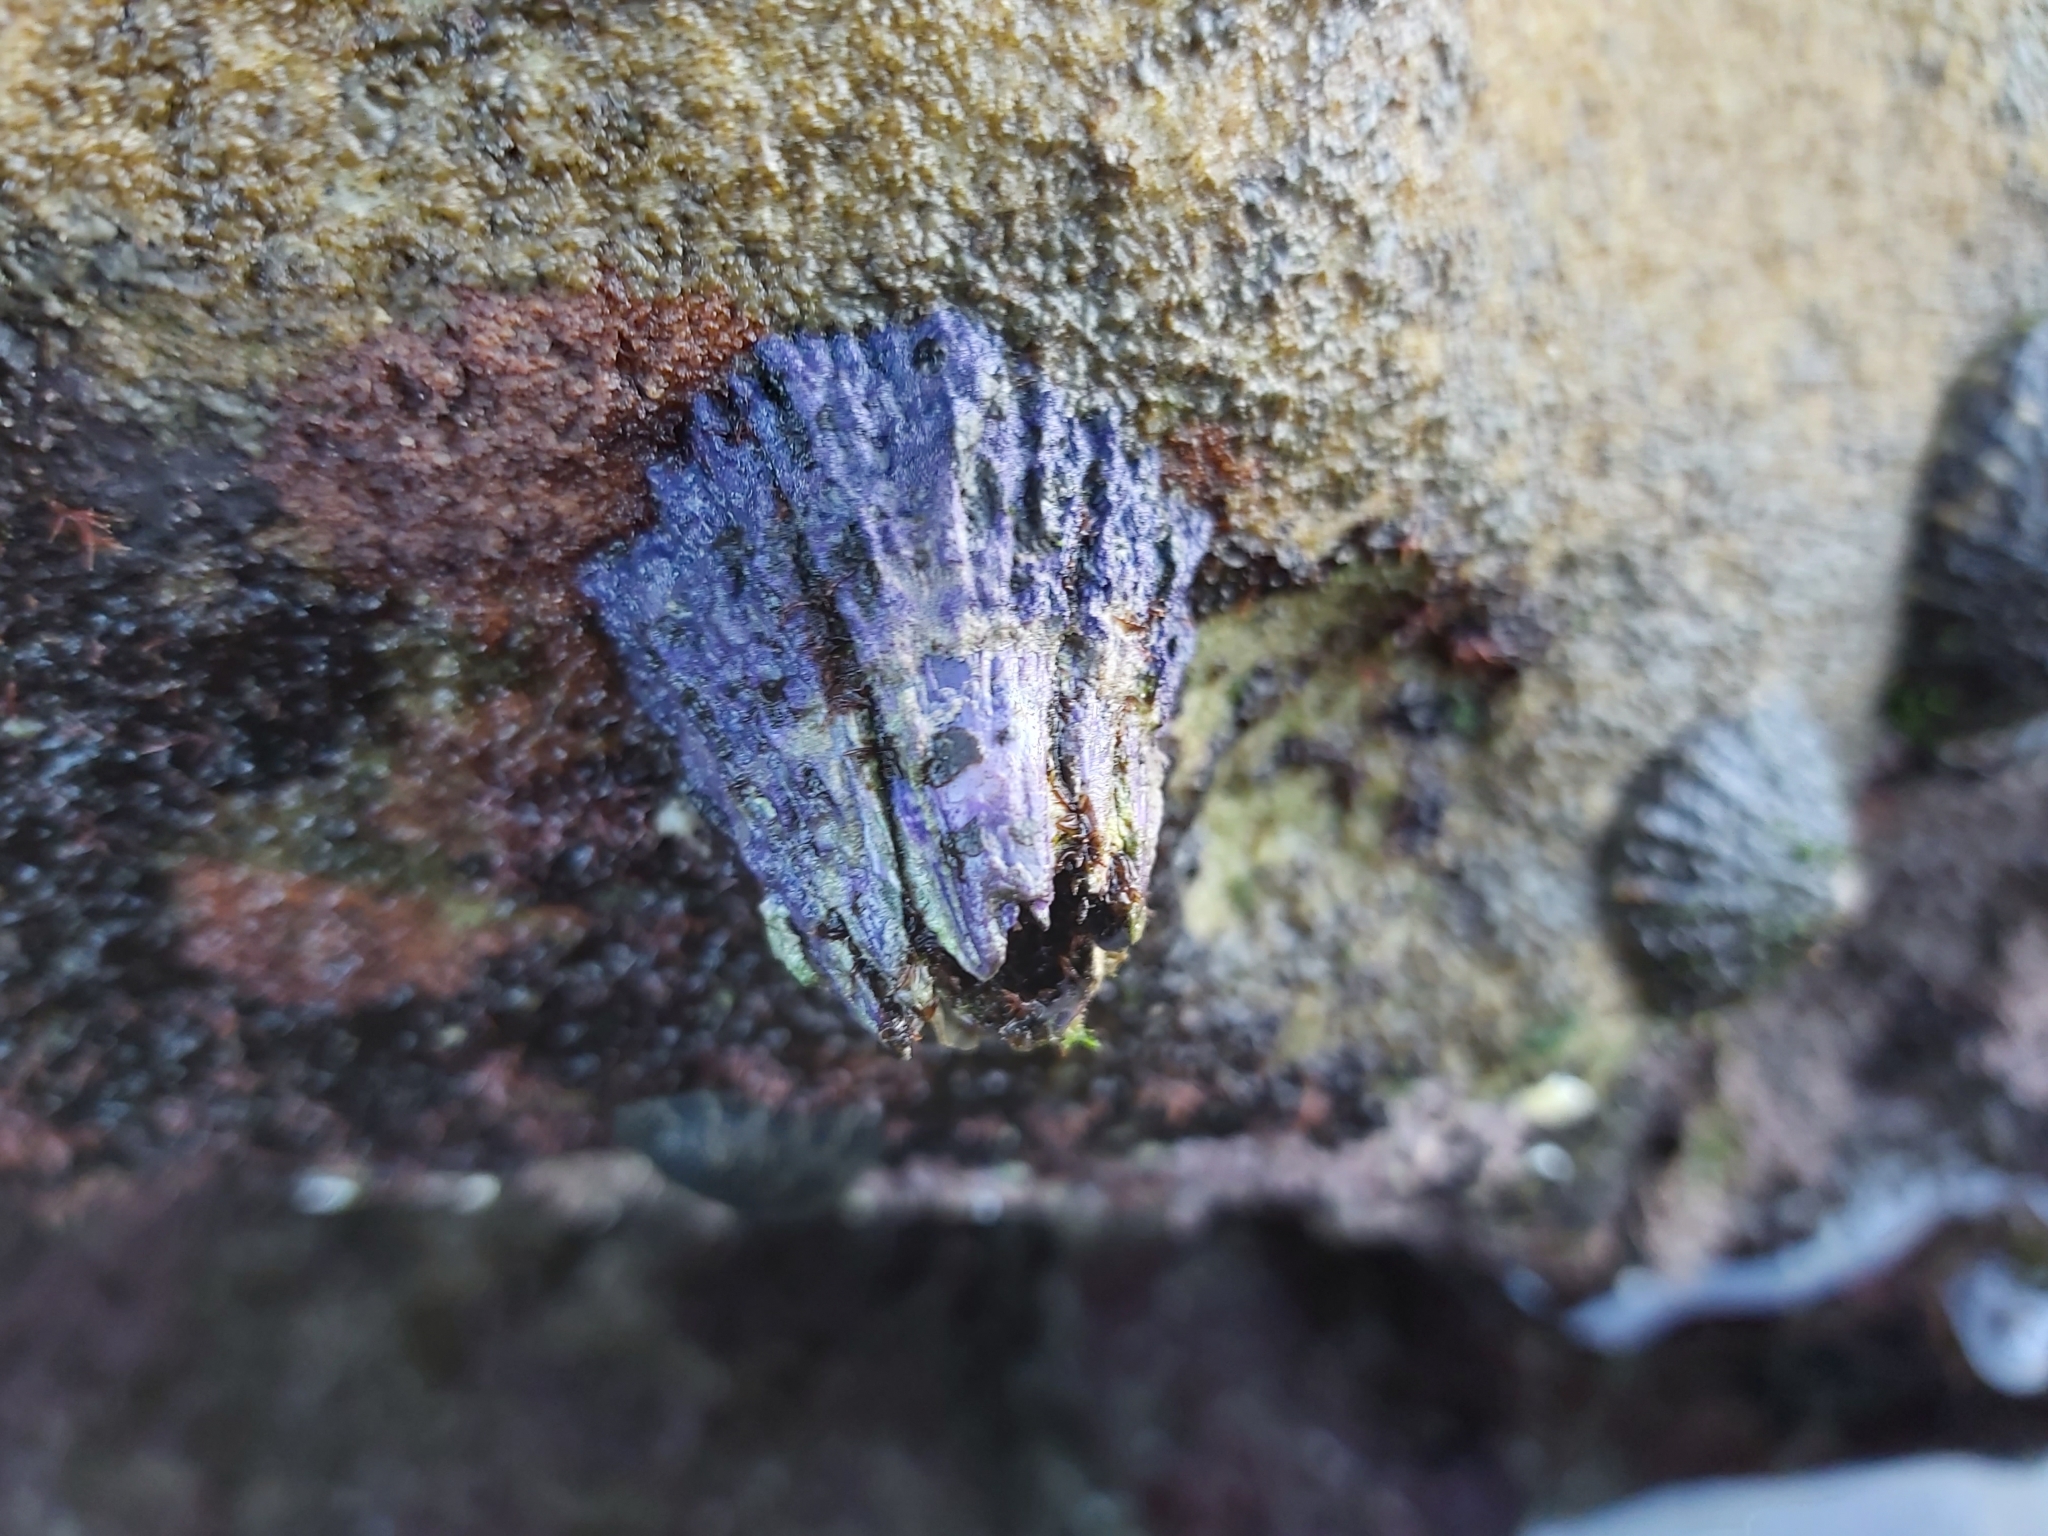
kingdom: Animalia
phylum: Arthropoda
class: Maxillopoda
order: Sessilia
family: Austrobalanidae
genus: Austrobalanus
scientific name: Austrobalanus imperator
